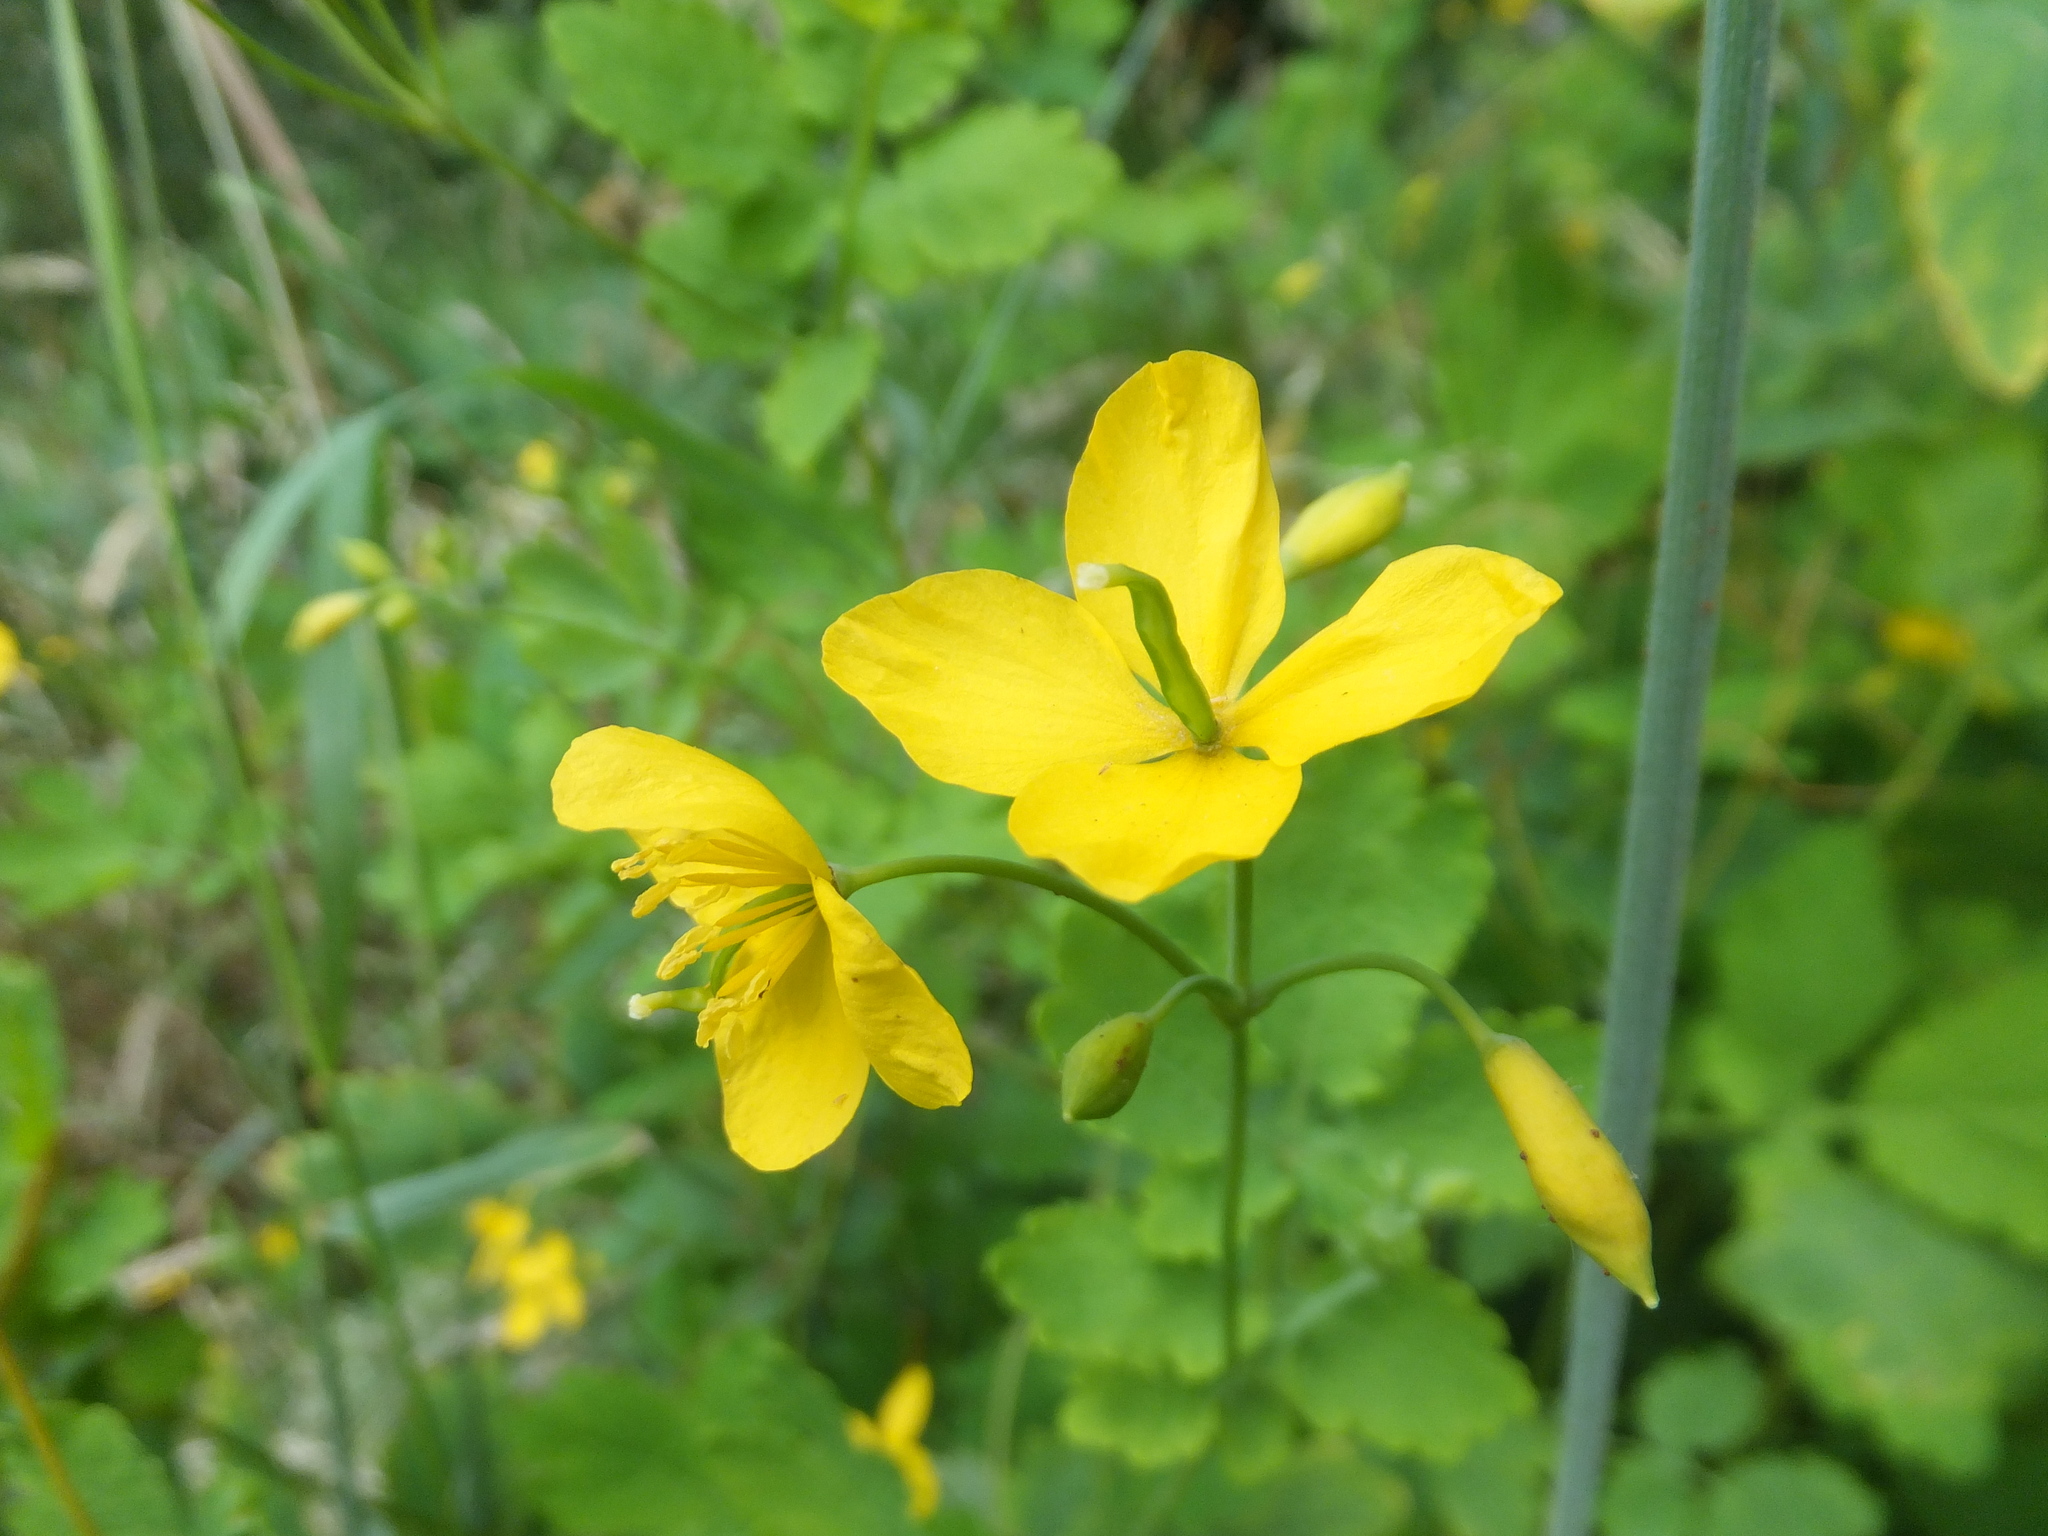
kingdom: Plantae
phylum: Tracheophyta
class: Magnoliopsida
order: Ranunculales
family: Papaveraceae
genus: Chelidonium
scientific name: Chelidonium majus
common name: Greater celandine
